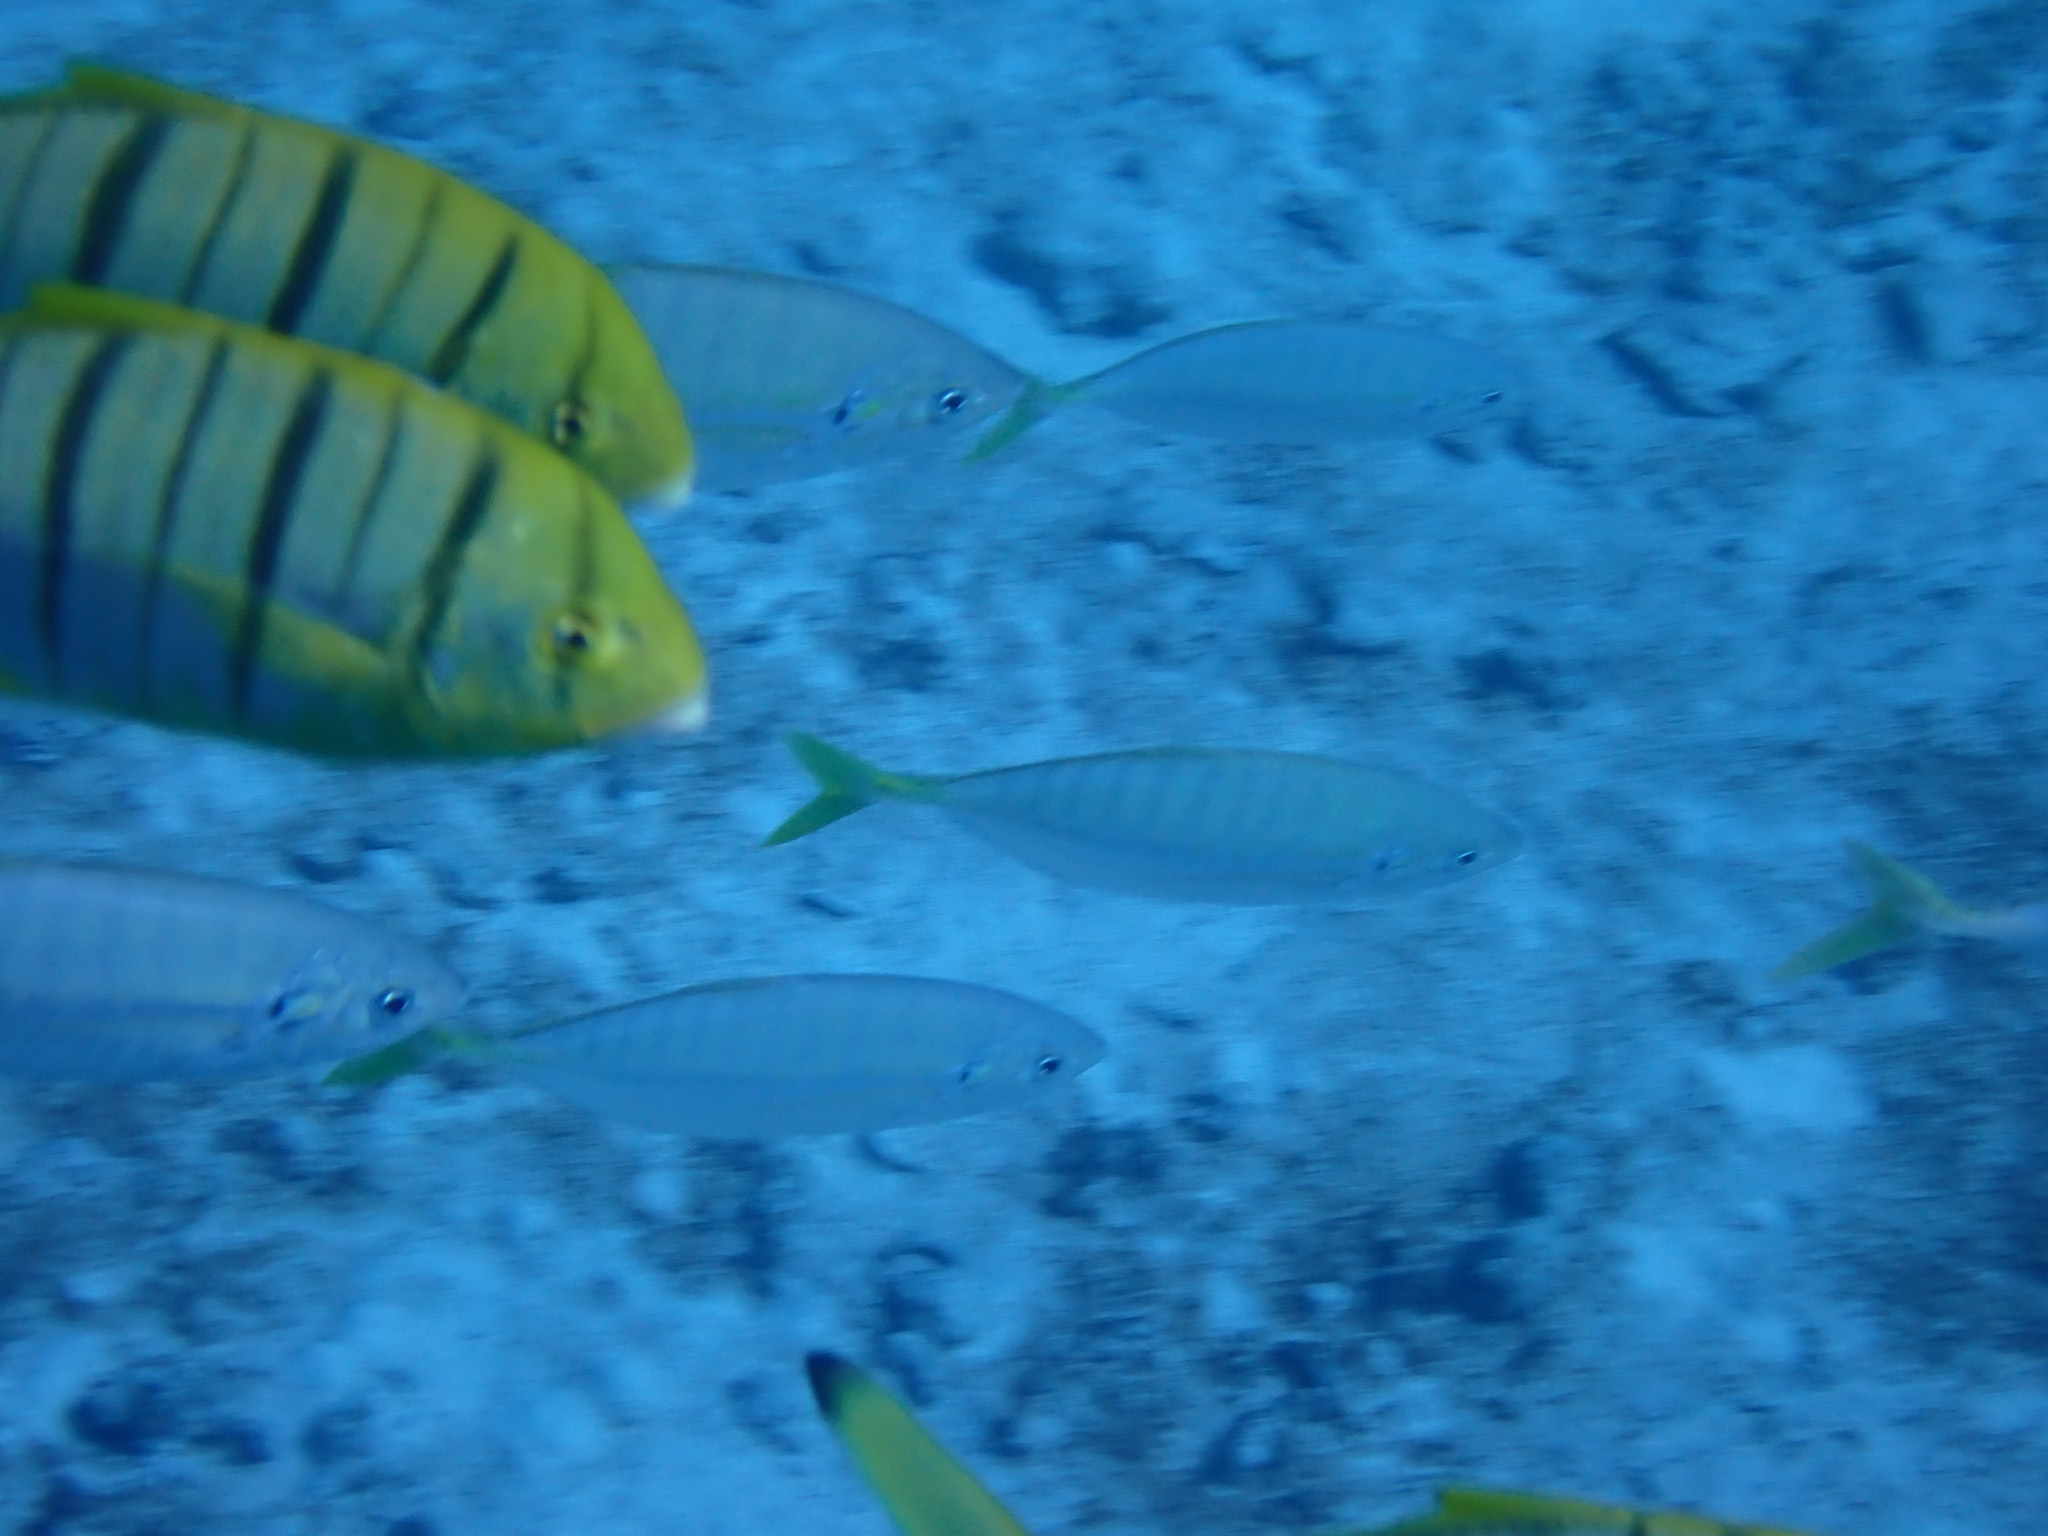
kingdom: Animalia
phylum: Chordata
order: Perciformes
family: Carangidae
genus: Gnathanodon
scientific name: Gnathanodon speciosus
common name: Golden toothless trevally
